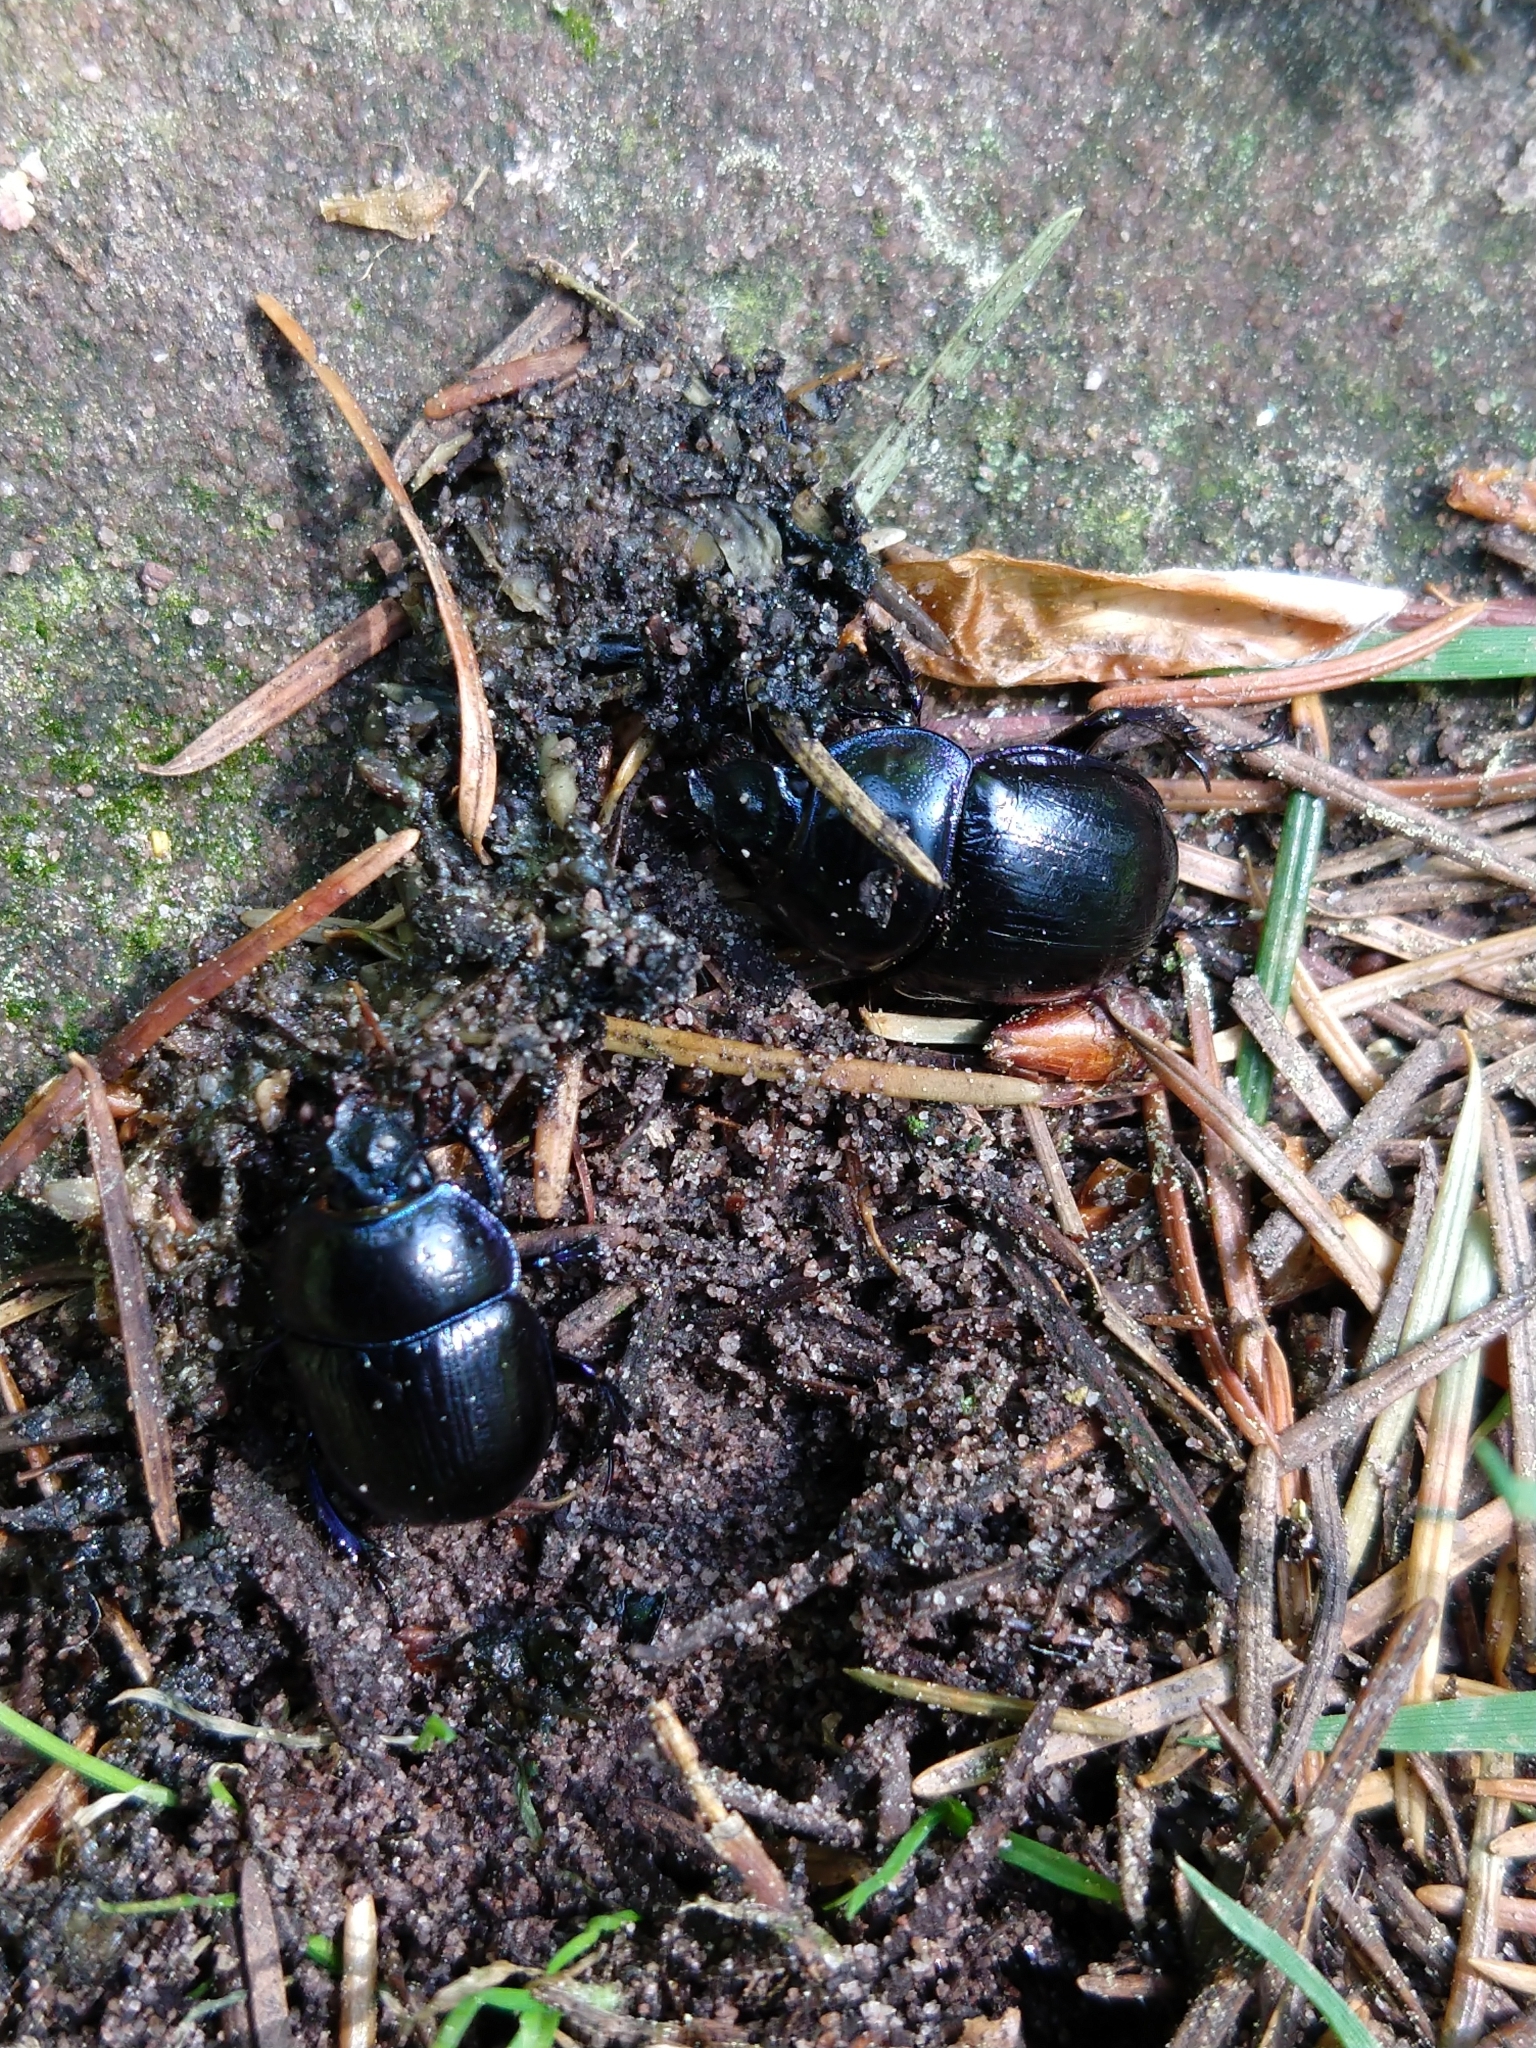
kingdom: Animalia
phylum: Arthropoda
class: Insecta
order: Coleoptera
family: Geotrupidae
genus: Anoplotrupes
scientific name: Anoplotrupes stercorosus
